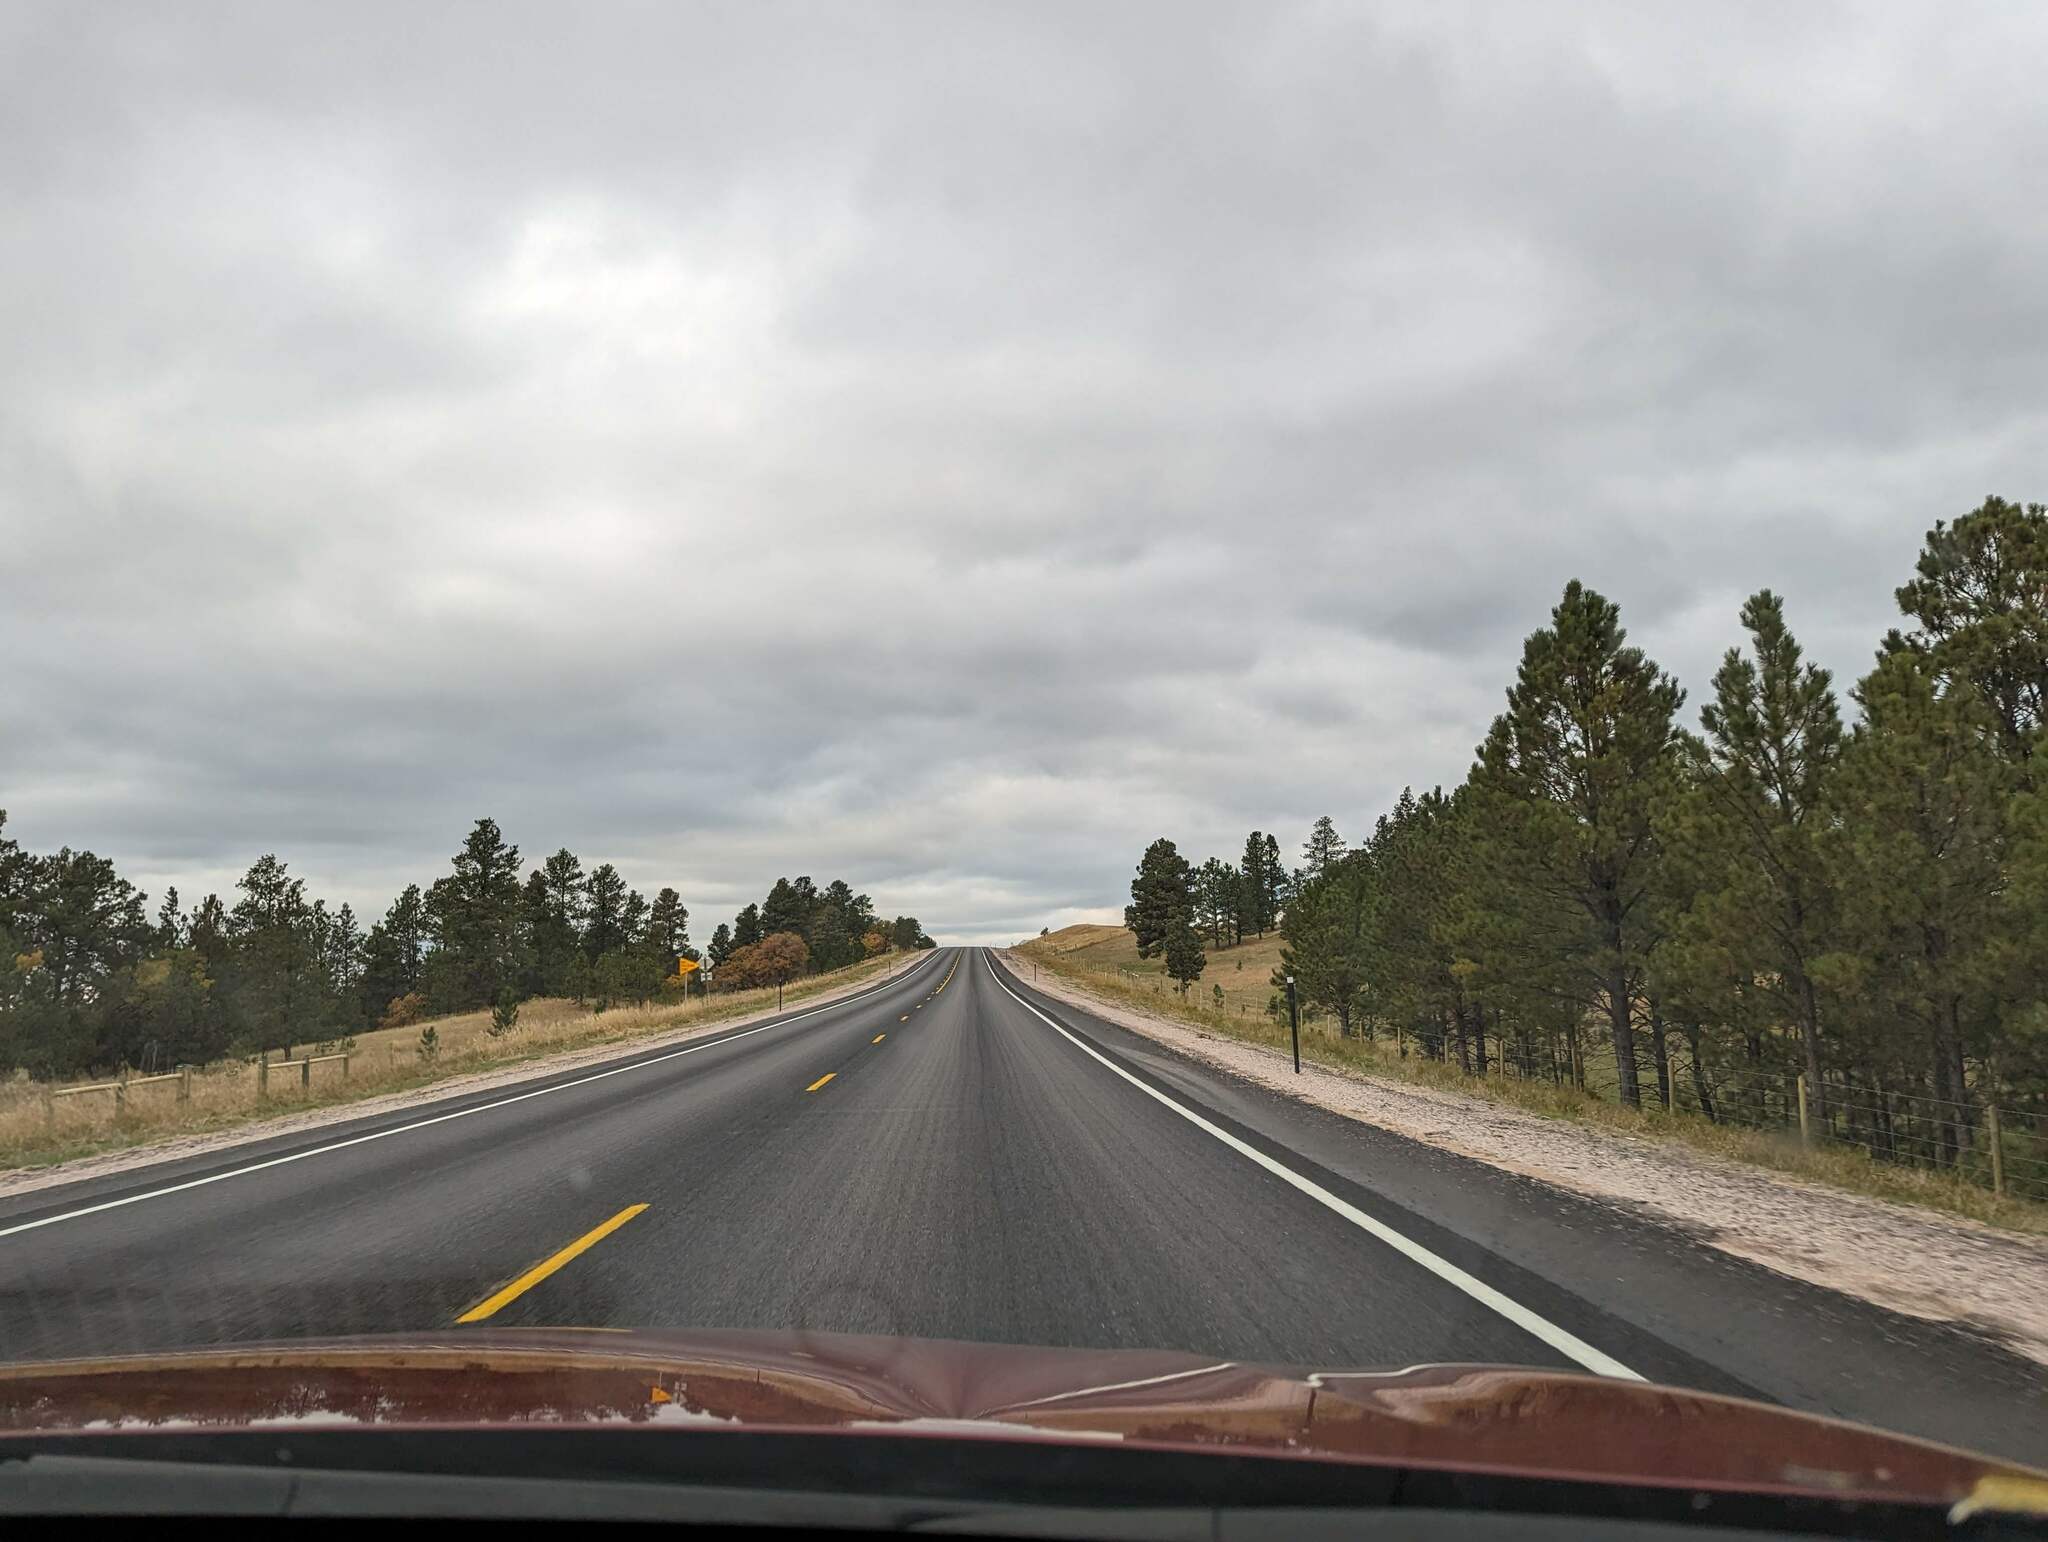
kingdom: Plantae
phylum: Tracheophyta
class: Pinopsida
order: Pinales
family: Pinaceae
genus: Pinus
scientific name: Pinus ponderosa
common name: Western yellow-pine
